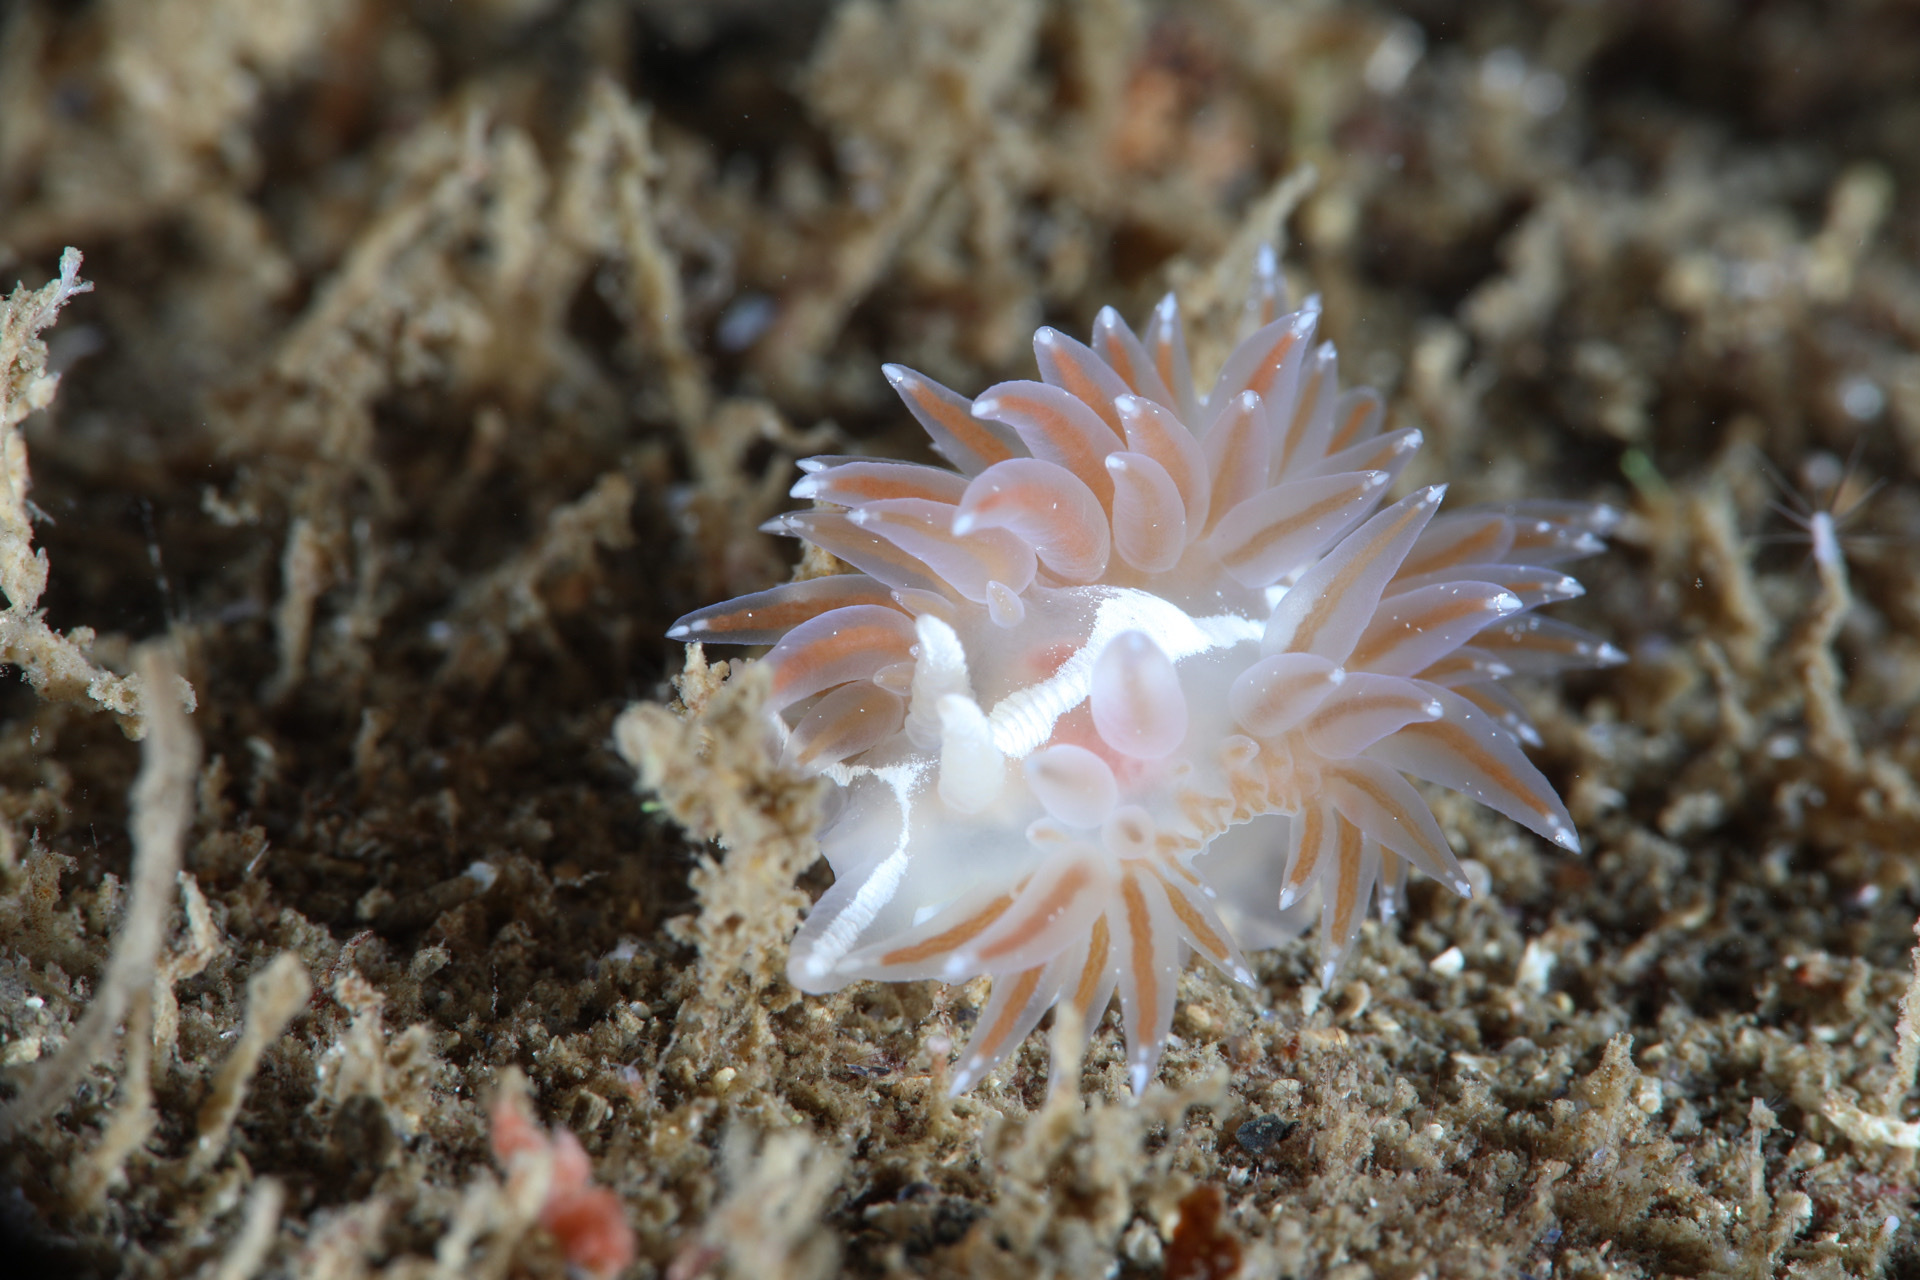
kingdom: Animalia
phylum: Mollusca
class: Gastropoda
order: Nudibranchia
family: Coryphellidae
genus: Coryphella
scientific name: Coryphella orjani
